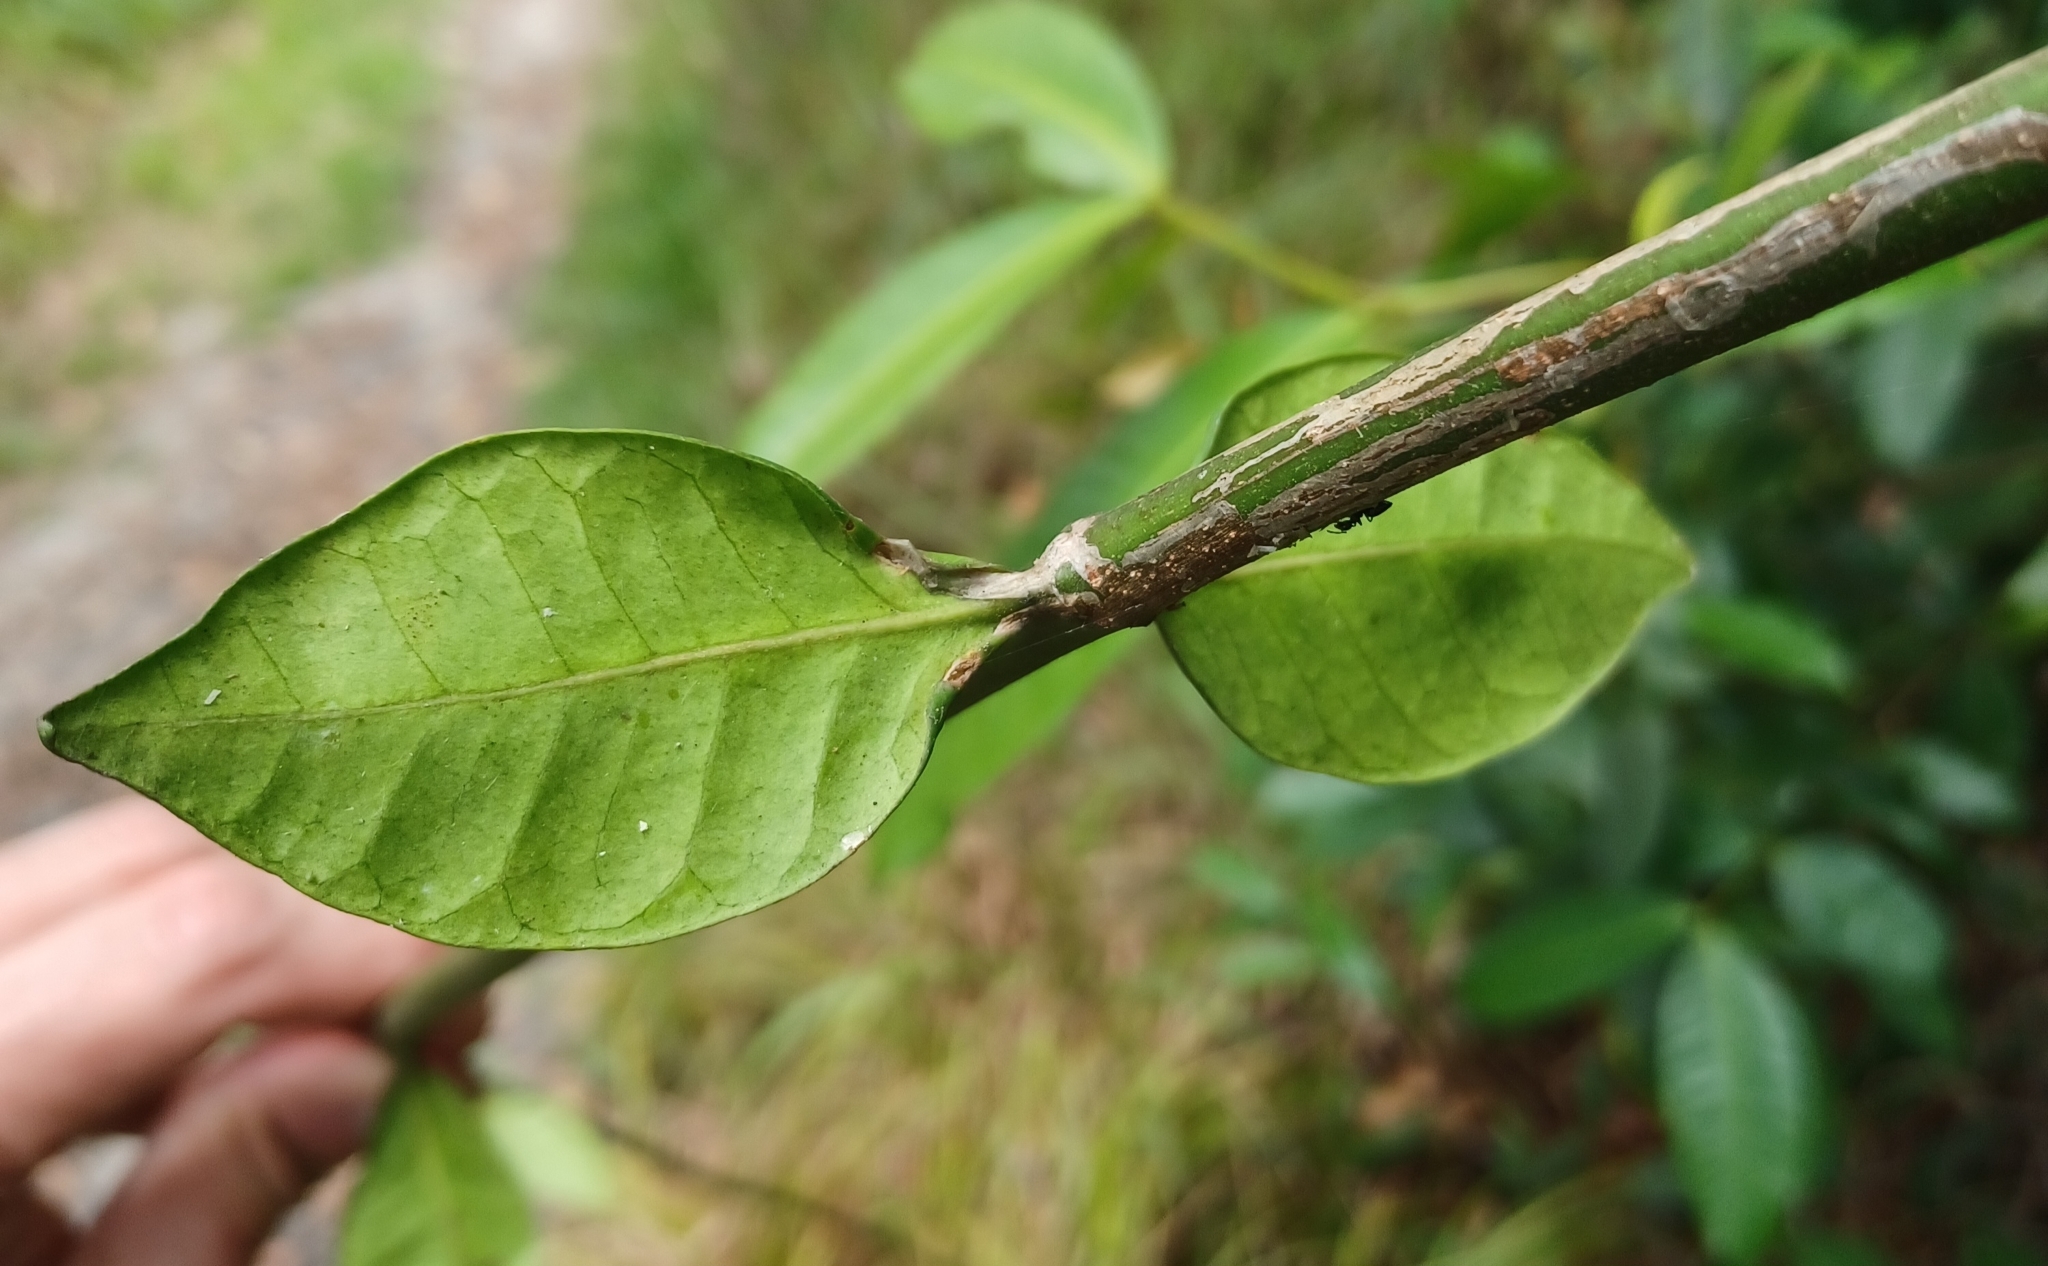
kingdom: Plantae
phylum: Tracheophyta
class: Magnoliopsida
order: Gentianales
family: Apocynaceae
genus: Melodinus
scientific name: Melodinus australis
